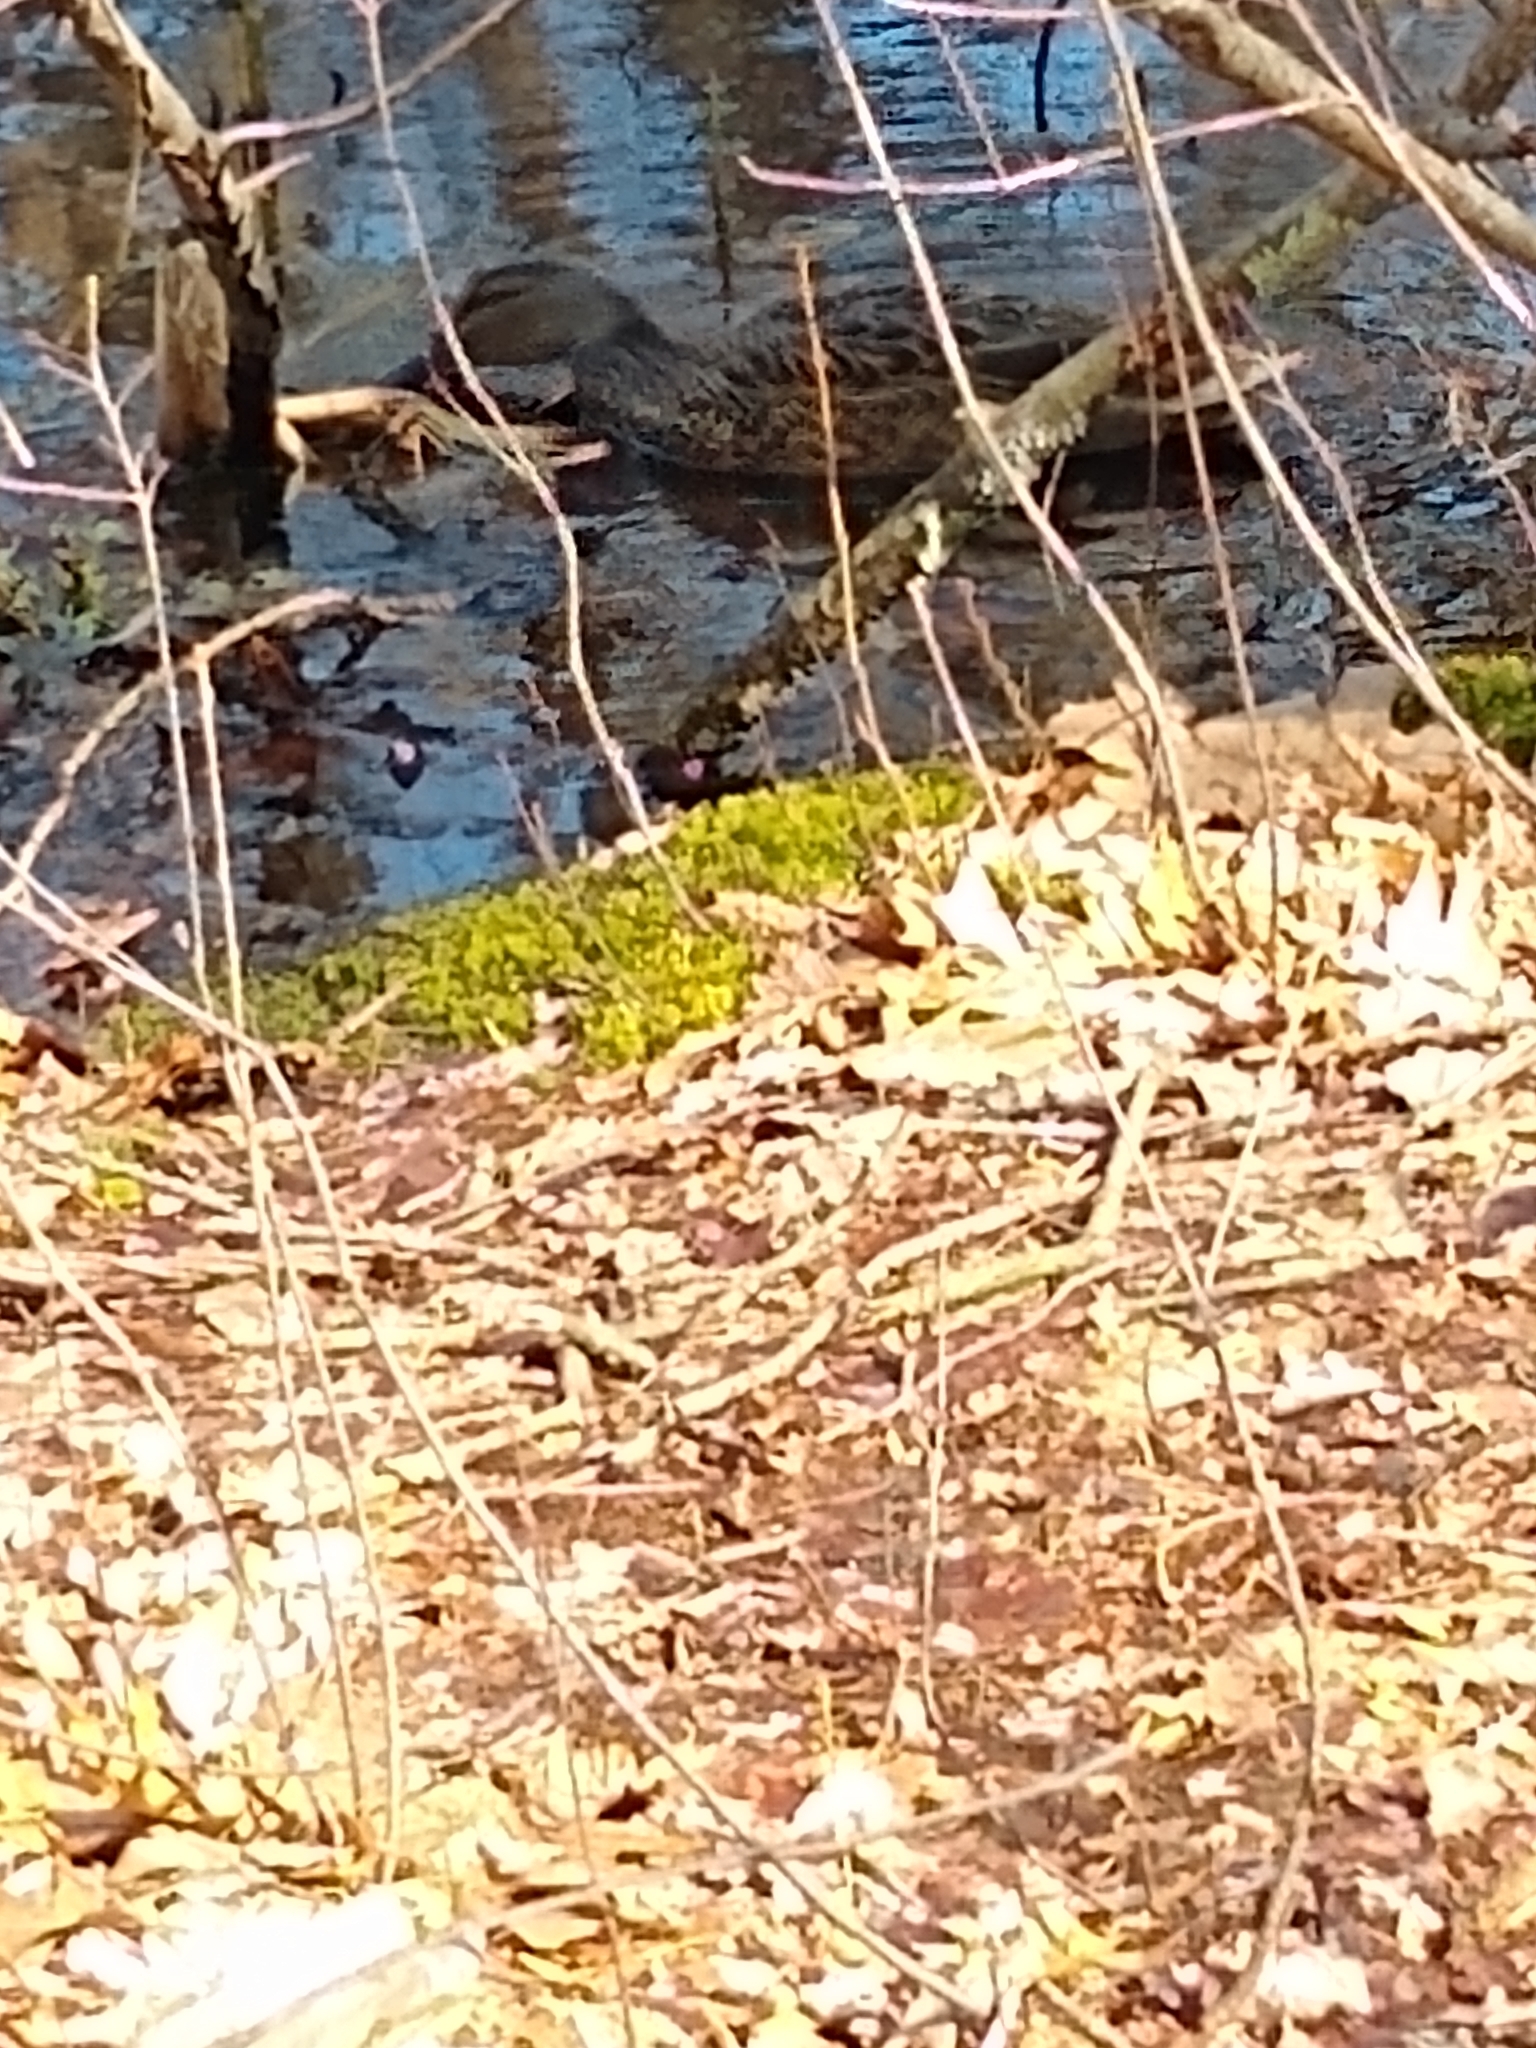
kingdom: Animalia
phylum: Chordata
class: Aves
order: Anseriformes
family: Anatidae
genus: Anas
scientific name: Anas platyrhynchos
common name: Mallard
